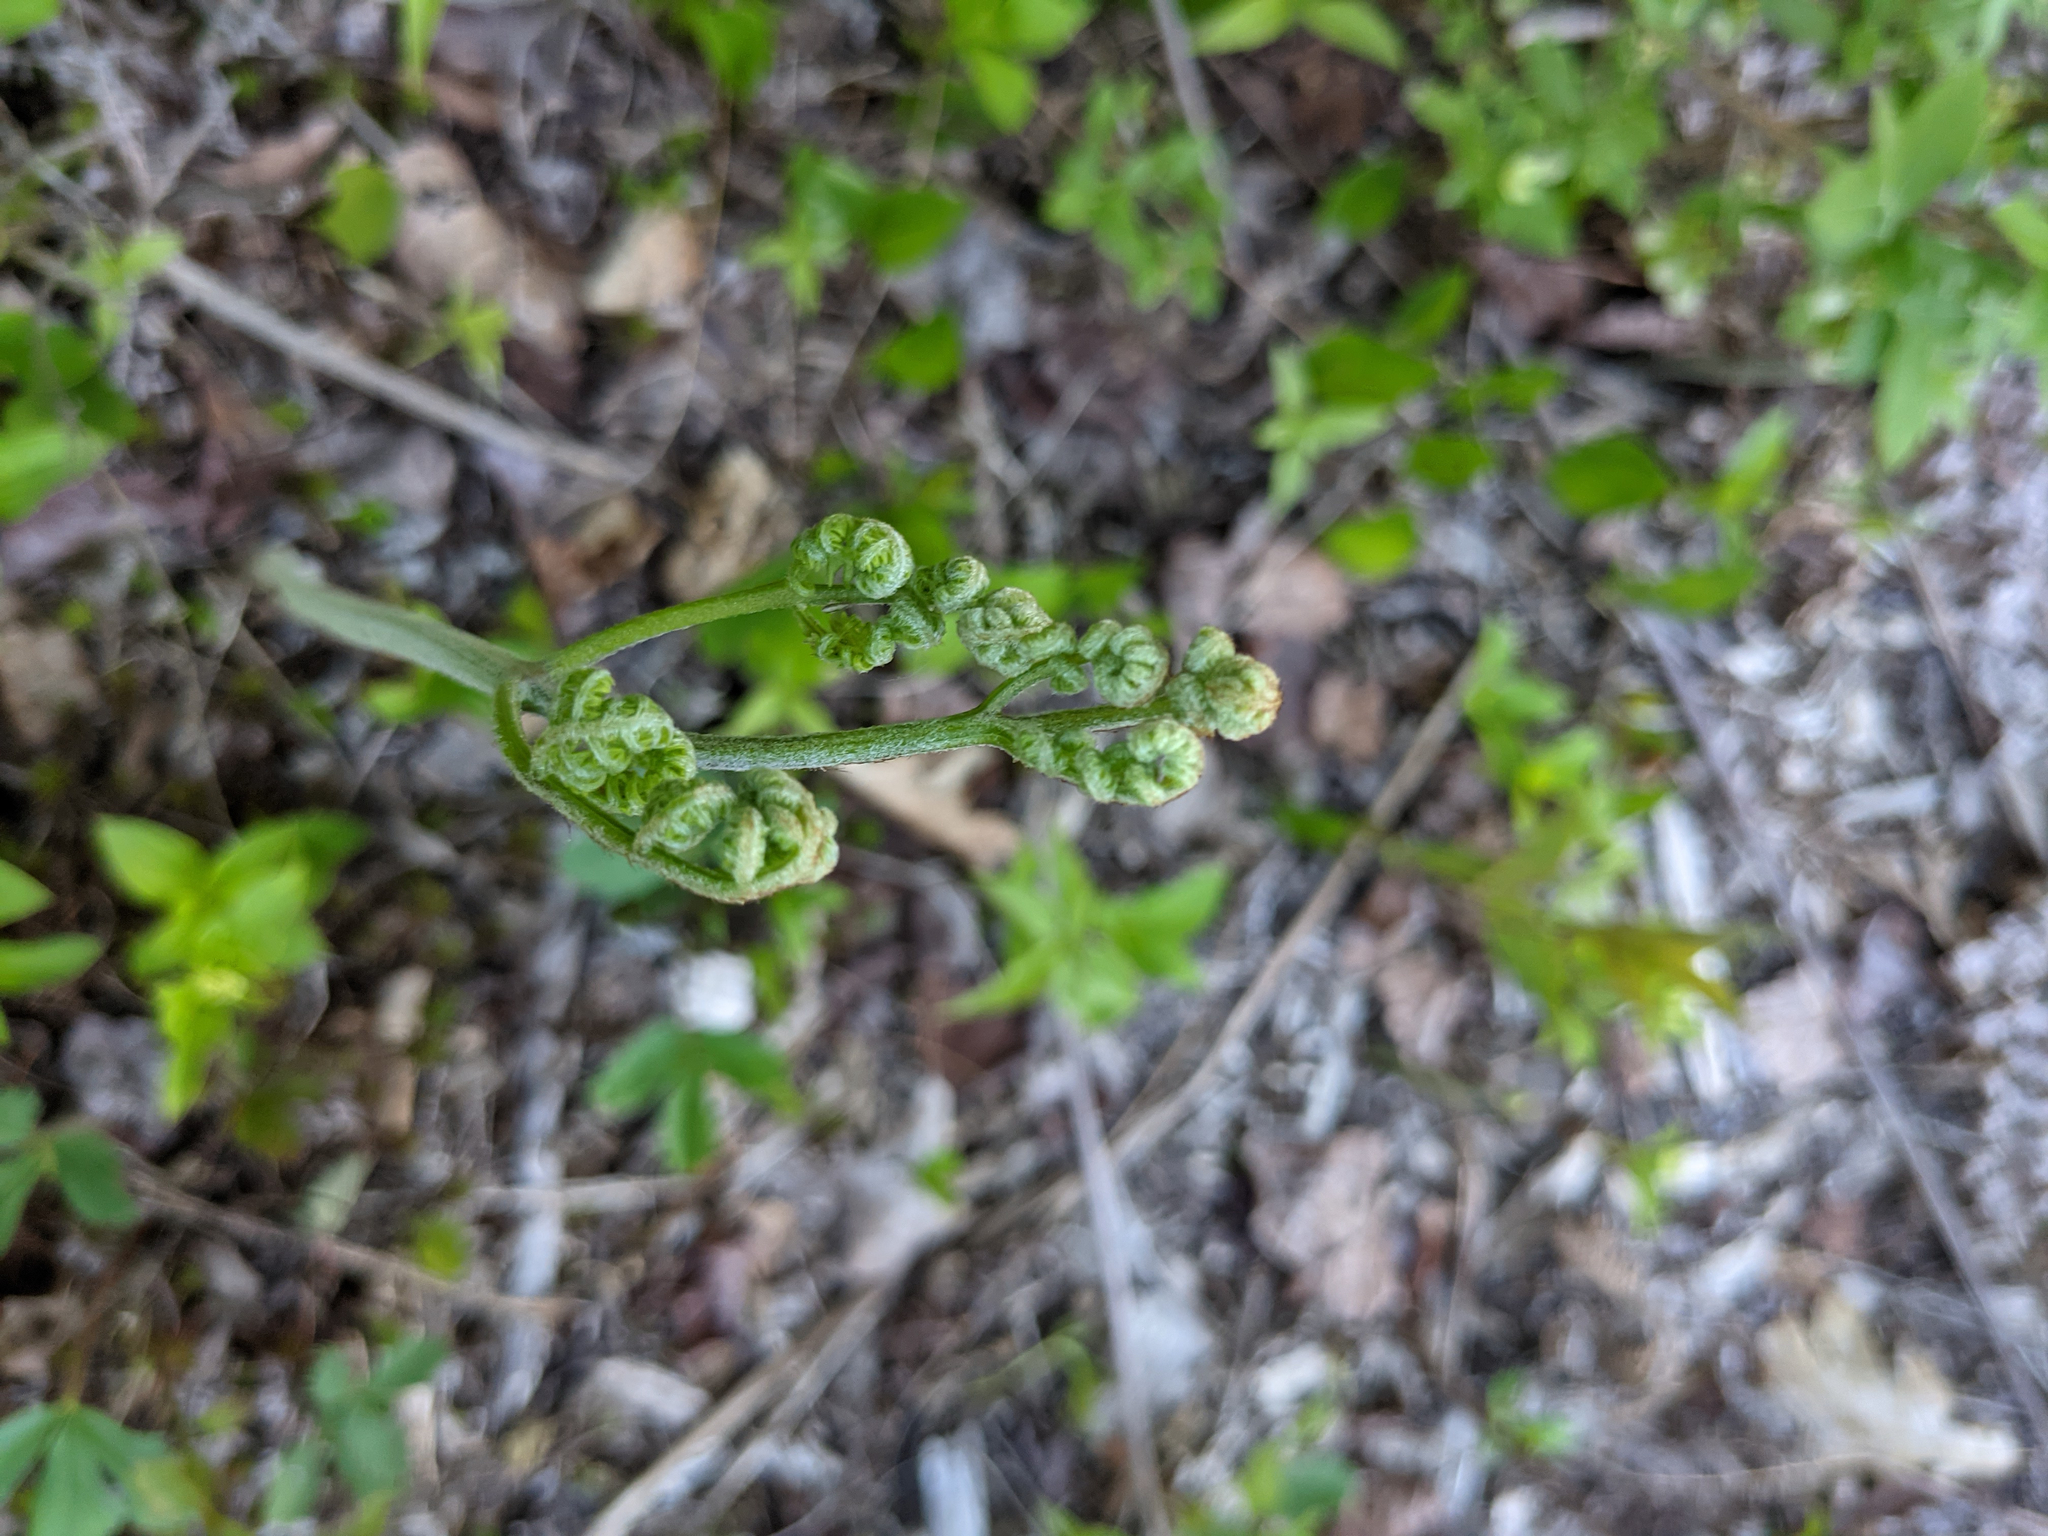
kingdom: Plantae
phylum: Tracheophyta
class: Polypodiopsida
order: Polypodiales
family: Dennstaedtiaceae
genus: Pteridium
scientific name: Pteridium aquilinum
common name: Bracken
